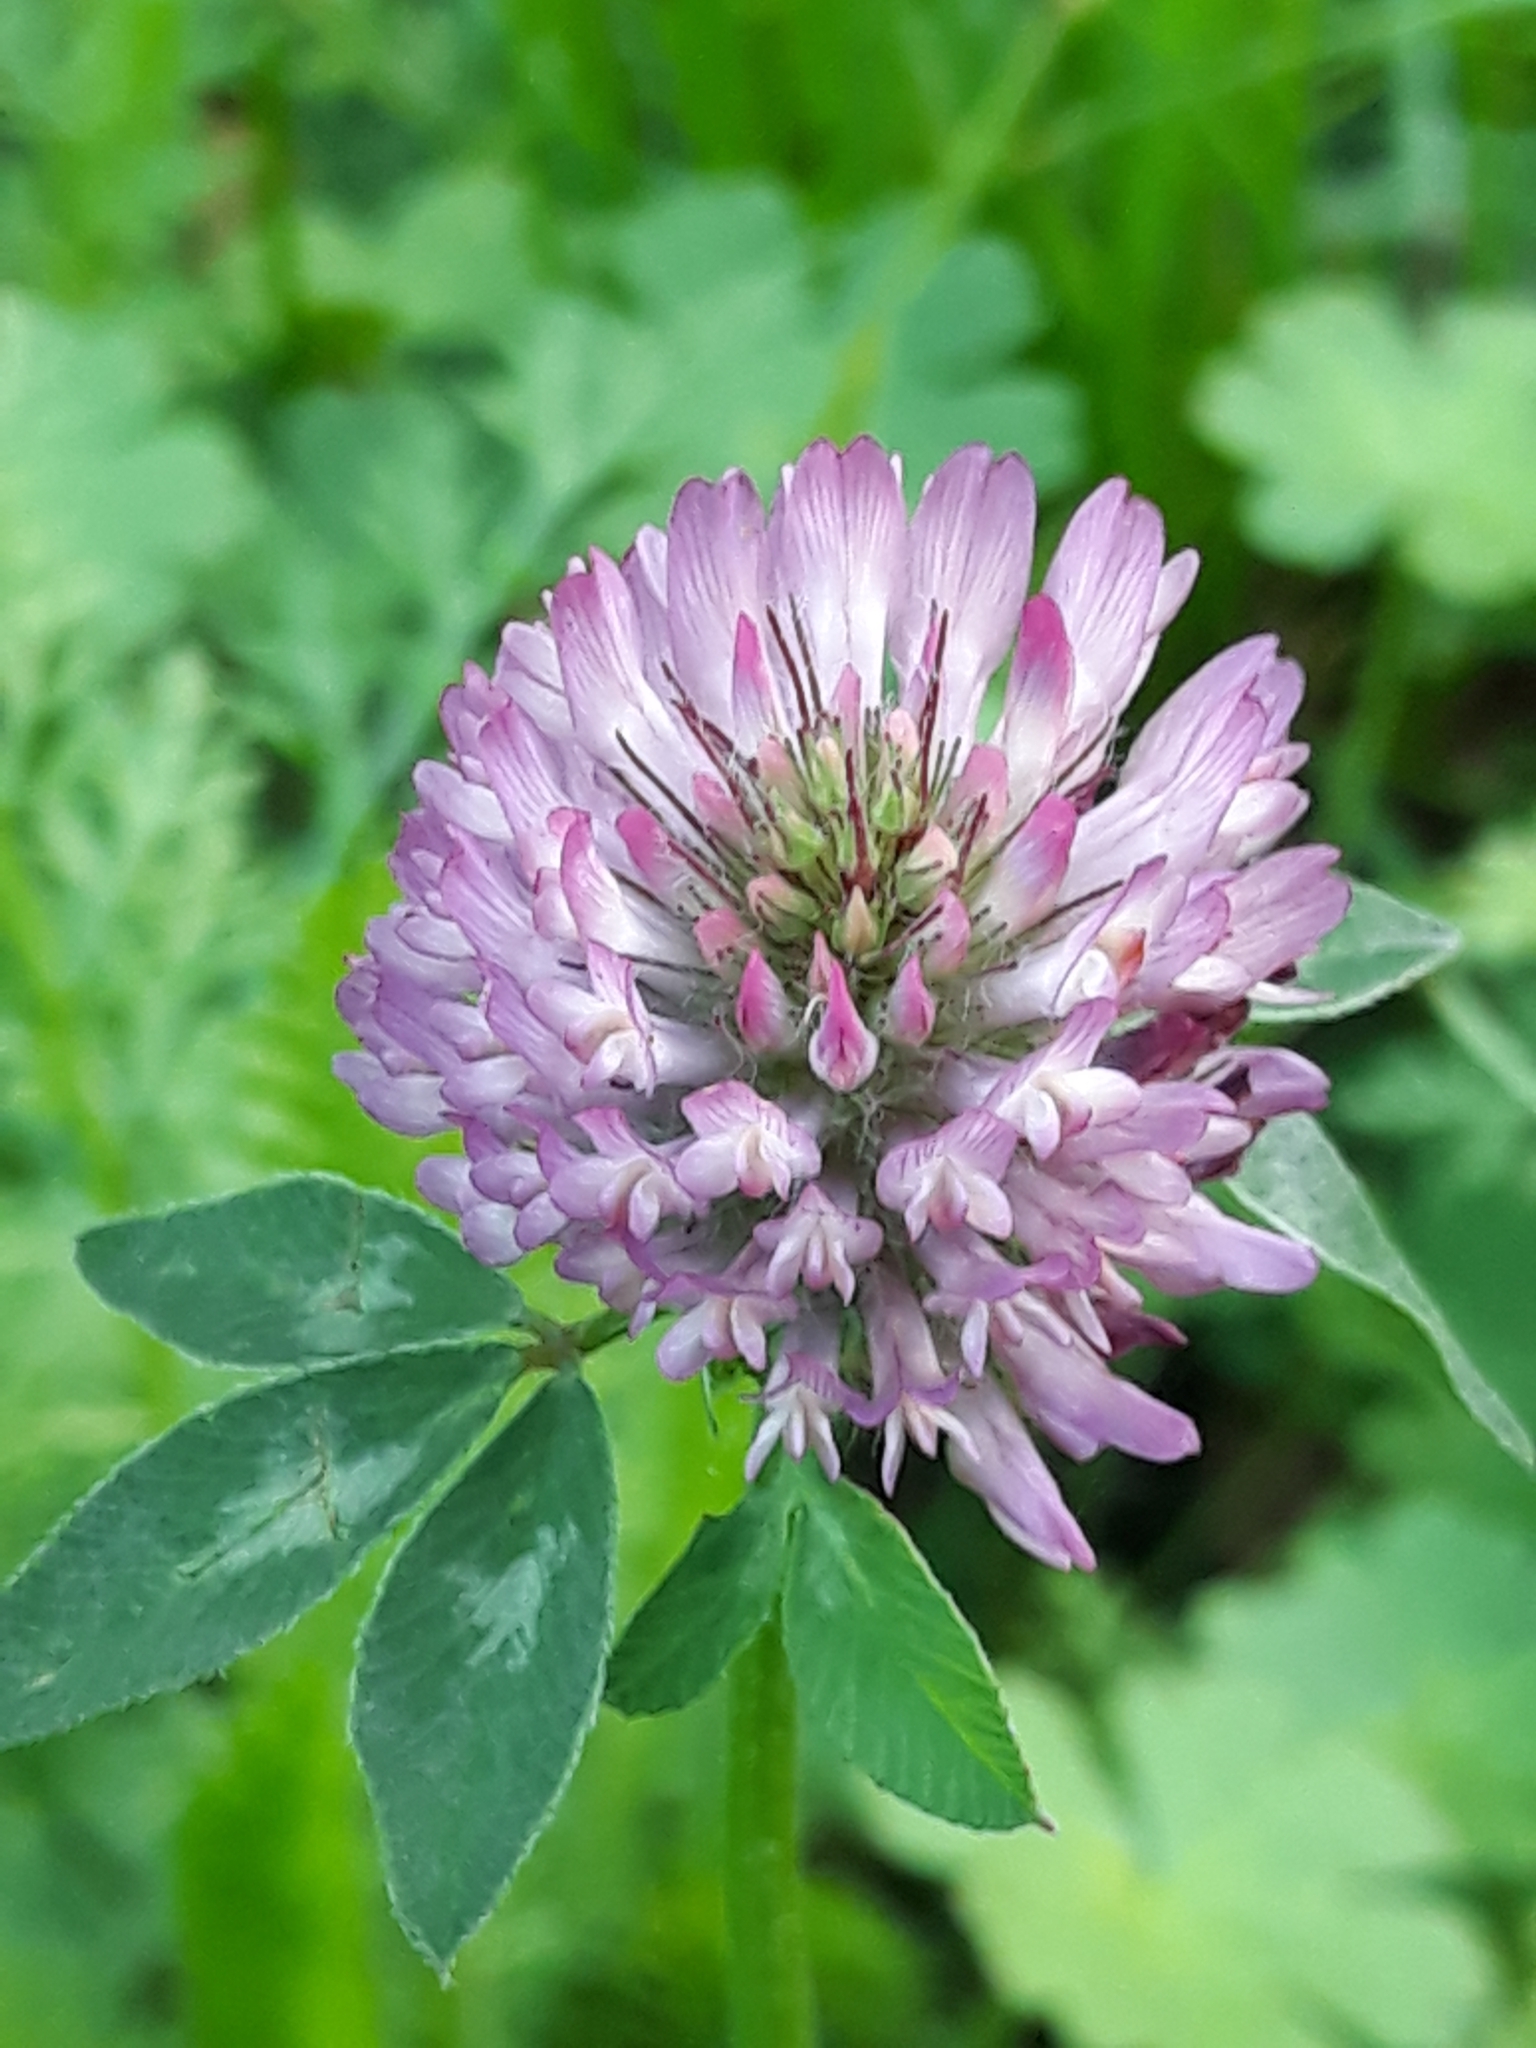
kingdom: Plantae
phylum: Tracheophyta
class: Magnoliopsida
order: Fabales
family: Fabaceae
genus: Trifolium
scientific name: Trifolium pratense
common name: Red clover
